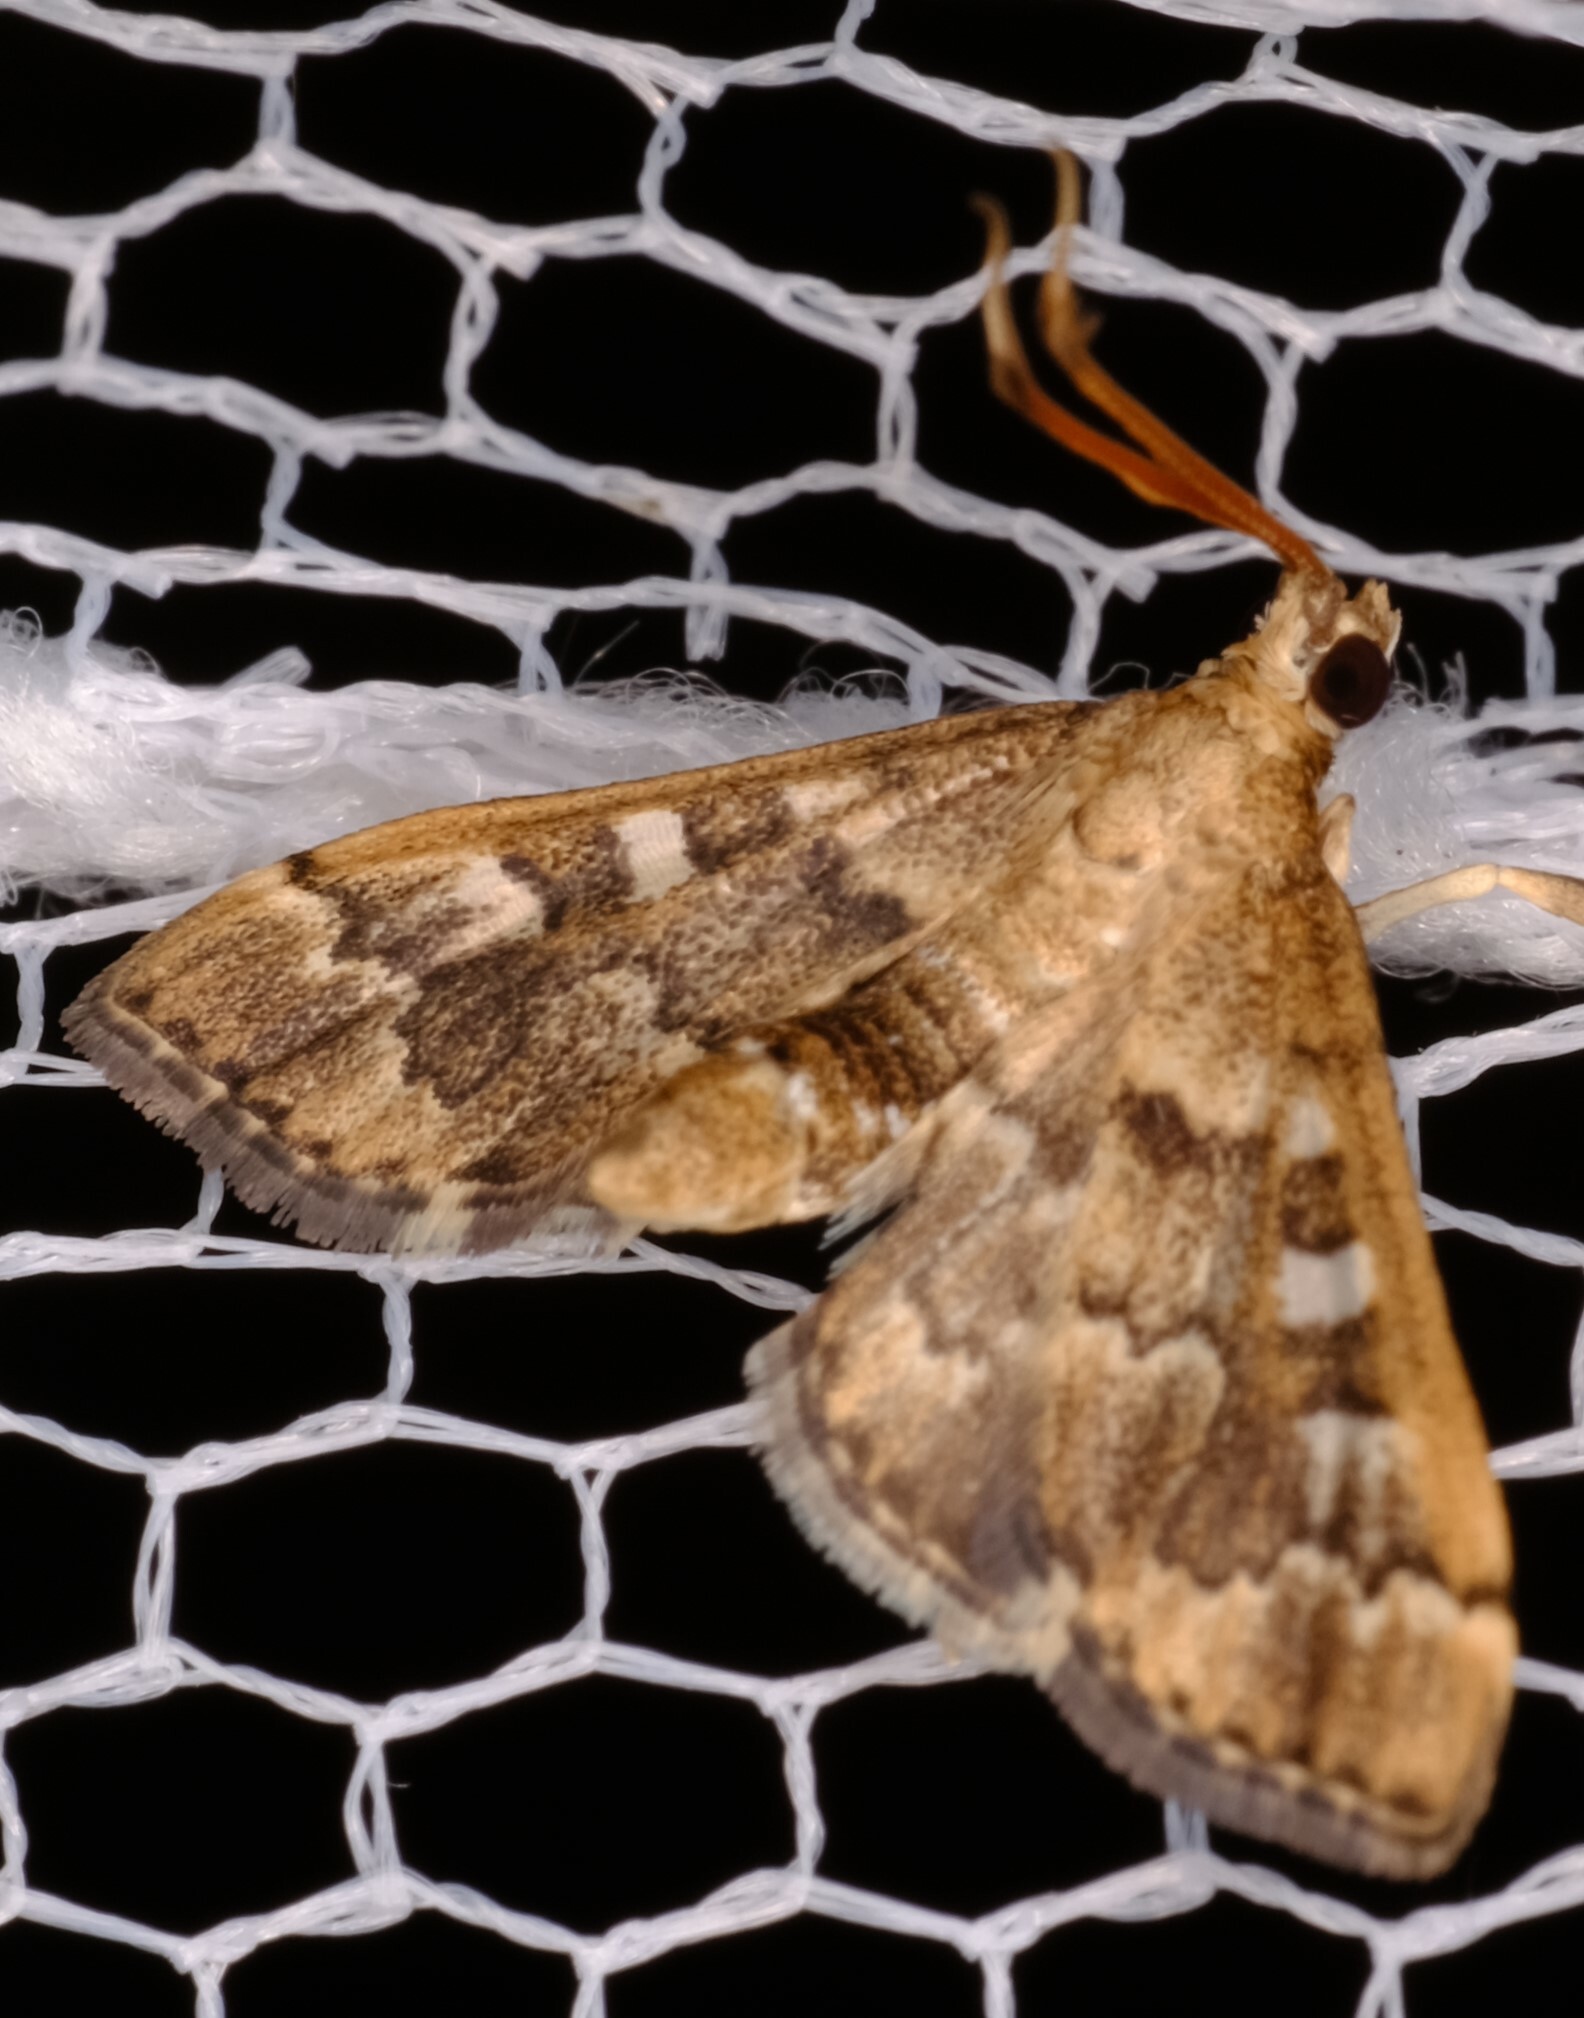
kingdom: Animalia
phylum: Arthropoda
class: Insecta
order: Lepidoptera
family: Crambidae
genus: Nacoleia
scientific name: Nacoleia rhoeoalis
